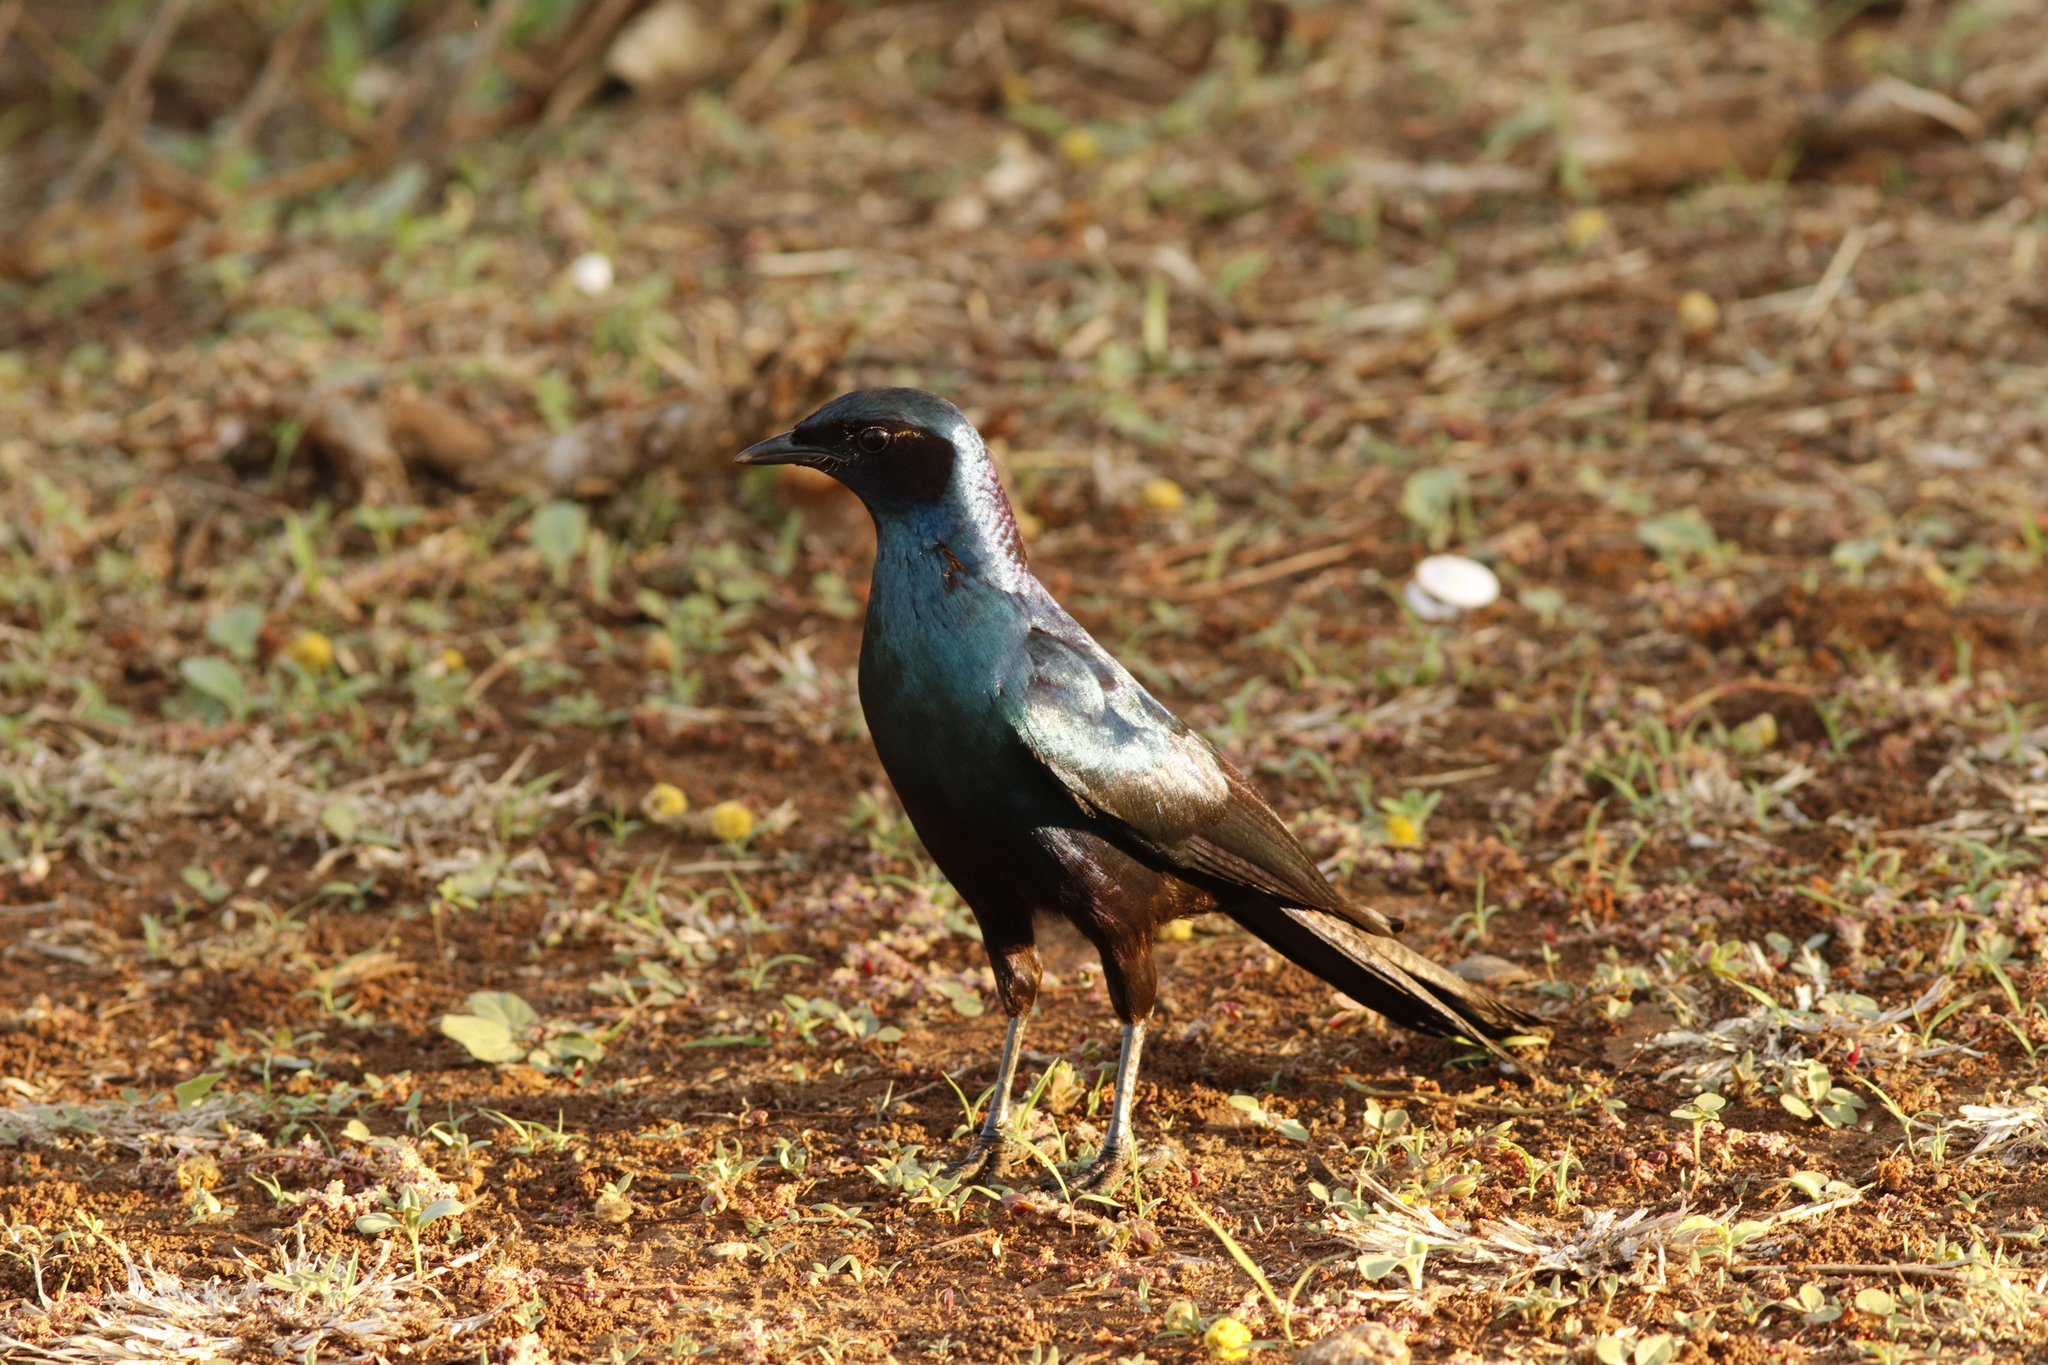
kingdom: Animalia
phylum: Chordata
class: Aves
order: Passeriformes
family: Sturnidae
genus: Lamprotornis
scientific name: Lamprotornis australis
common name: Burchell's starling
